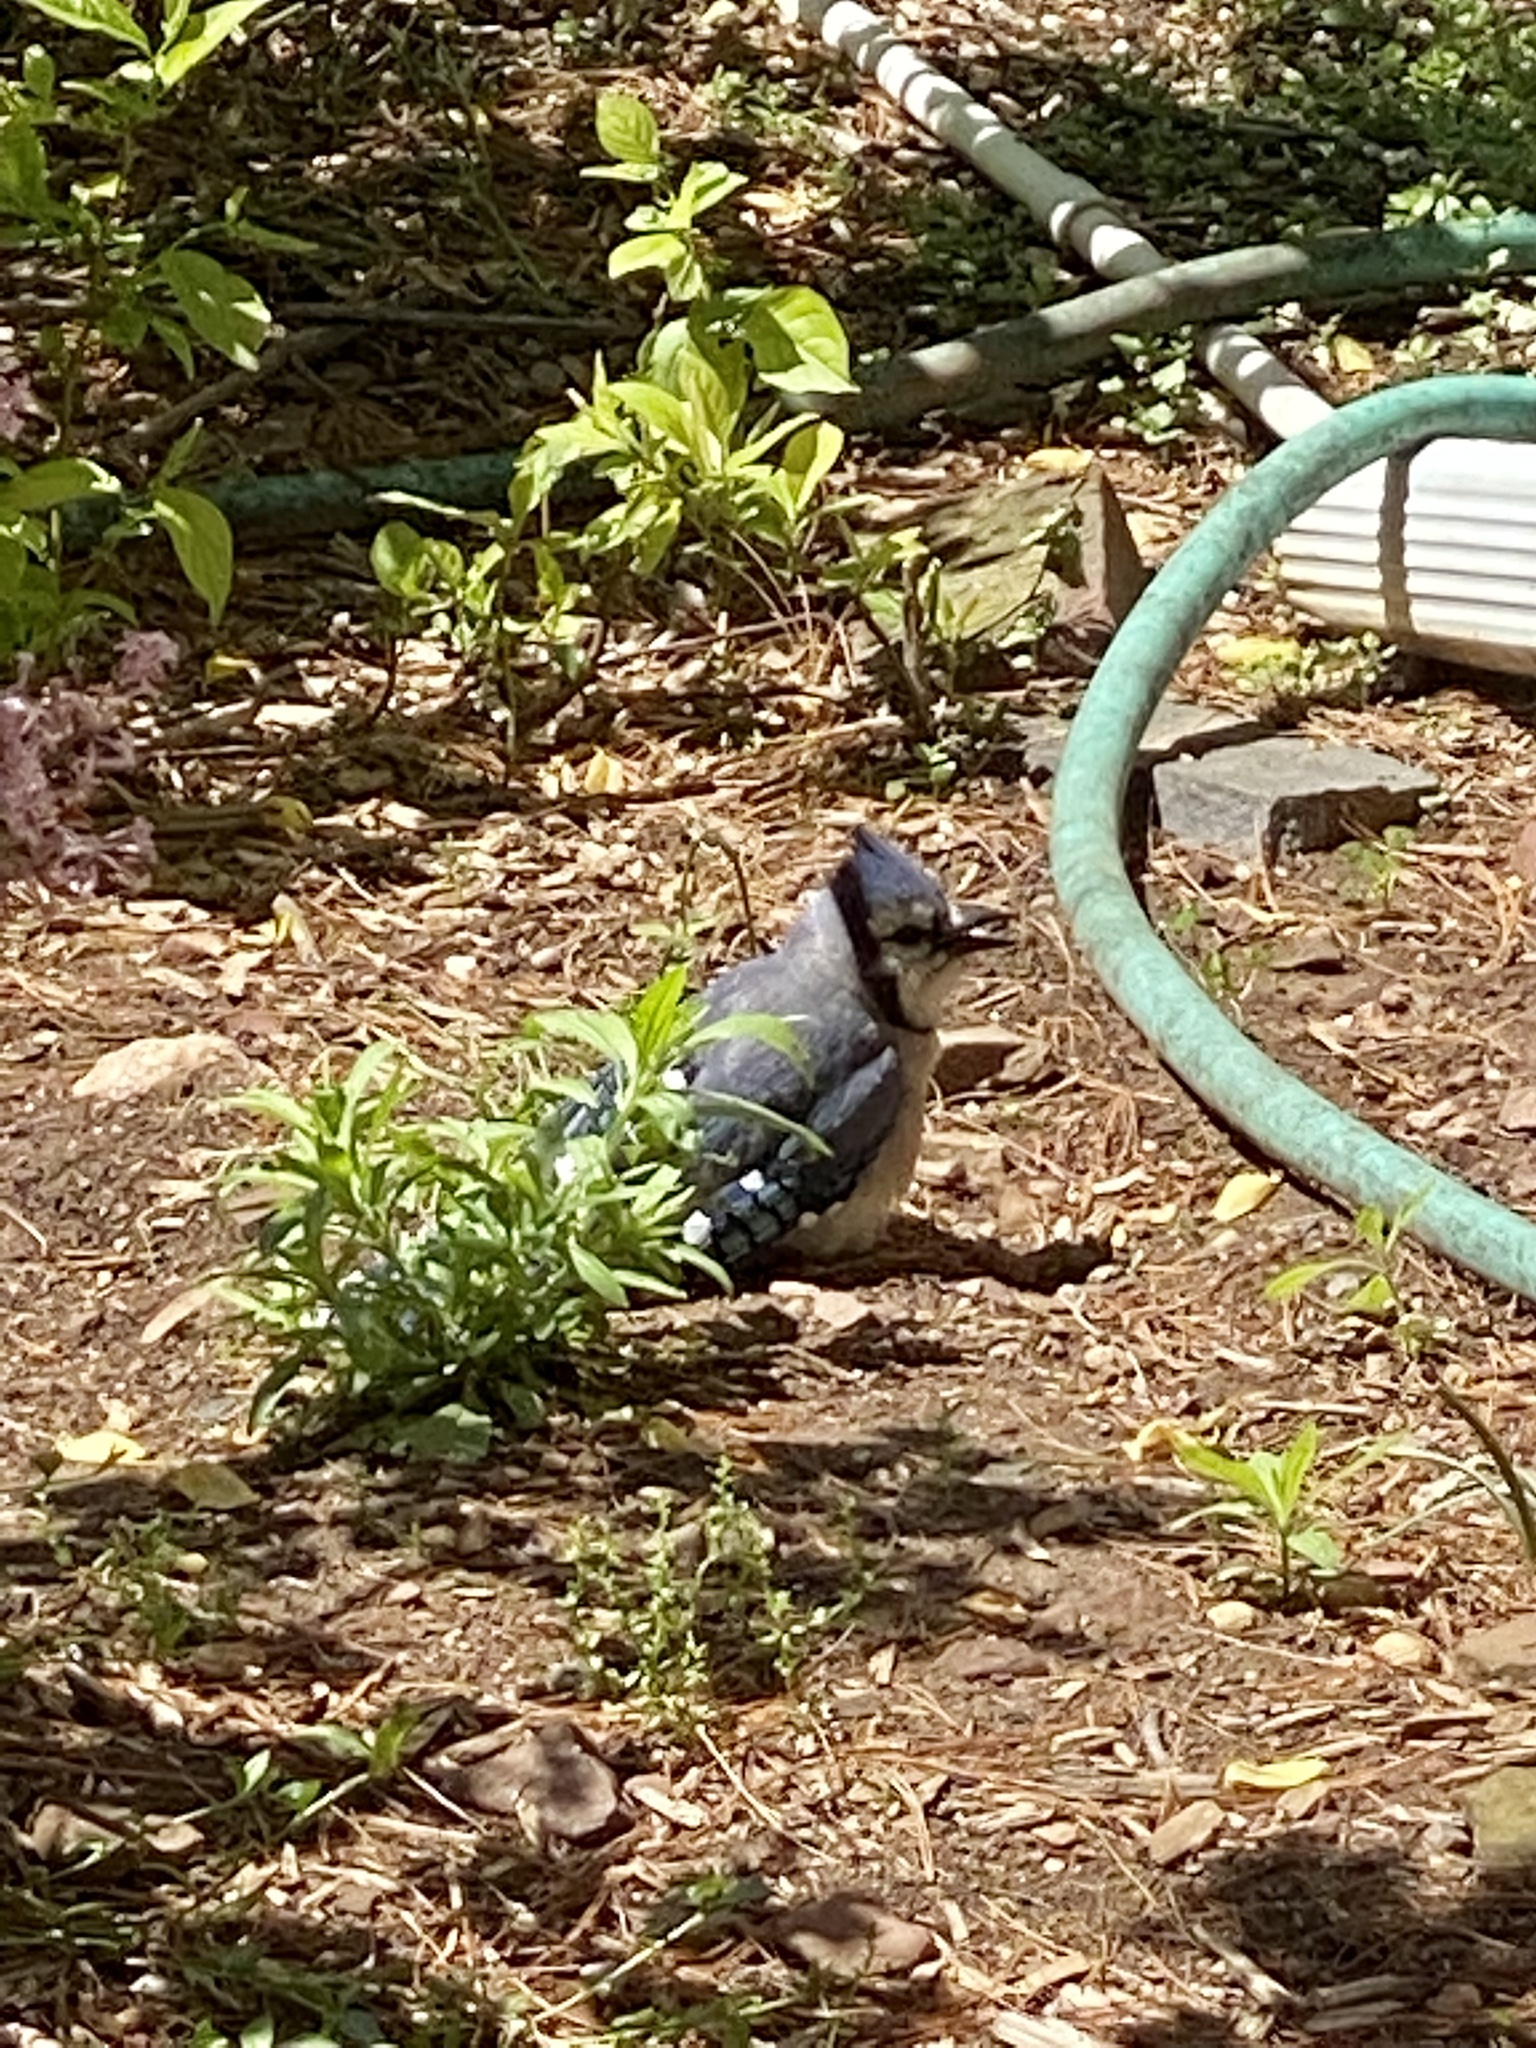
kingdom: Animalia
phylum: Chordata
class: Aves
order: Passeriformes
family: Corvidae
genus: Cyanocitta
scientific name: Cyanocitta cristata
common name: Blue jay
